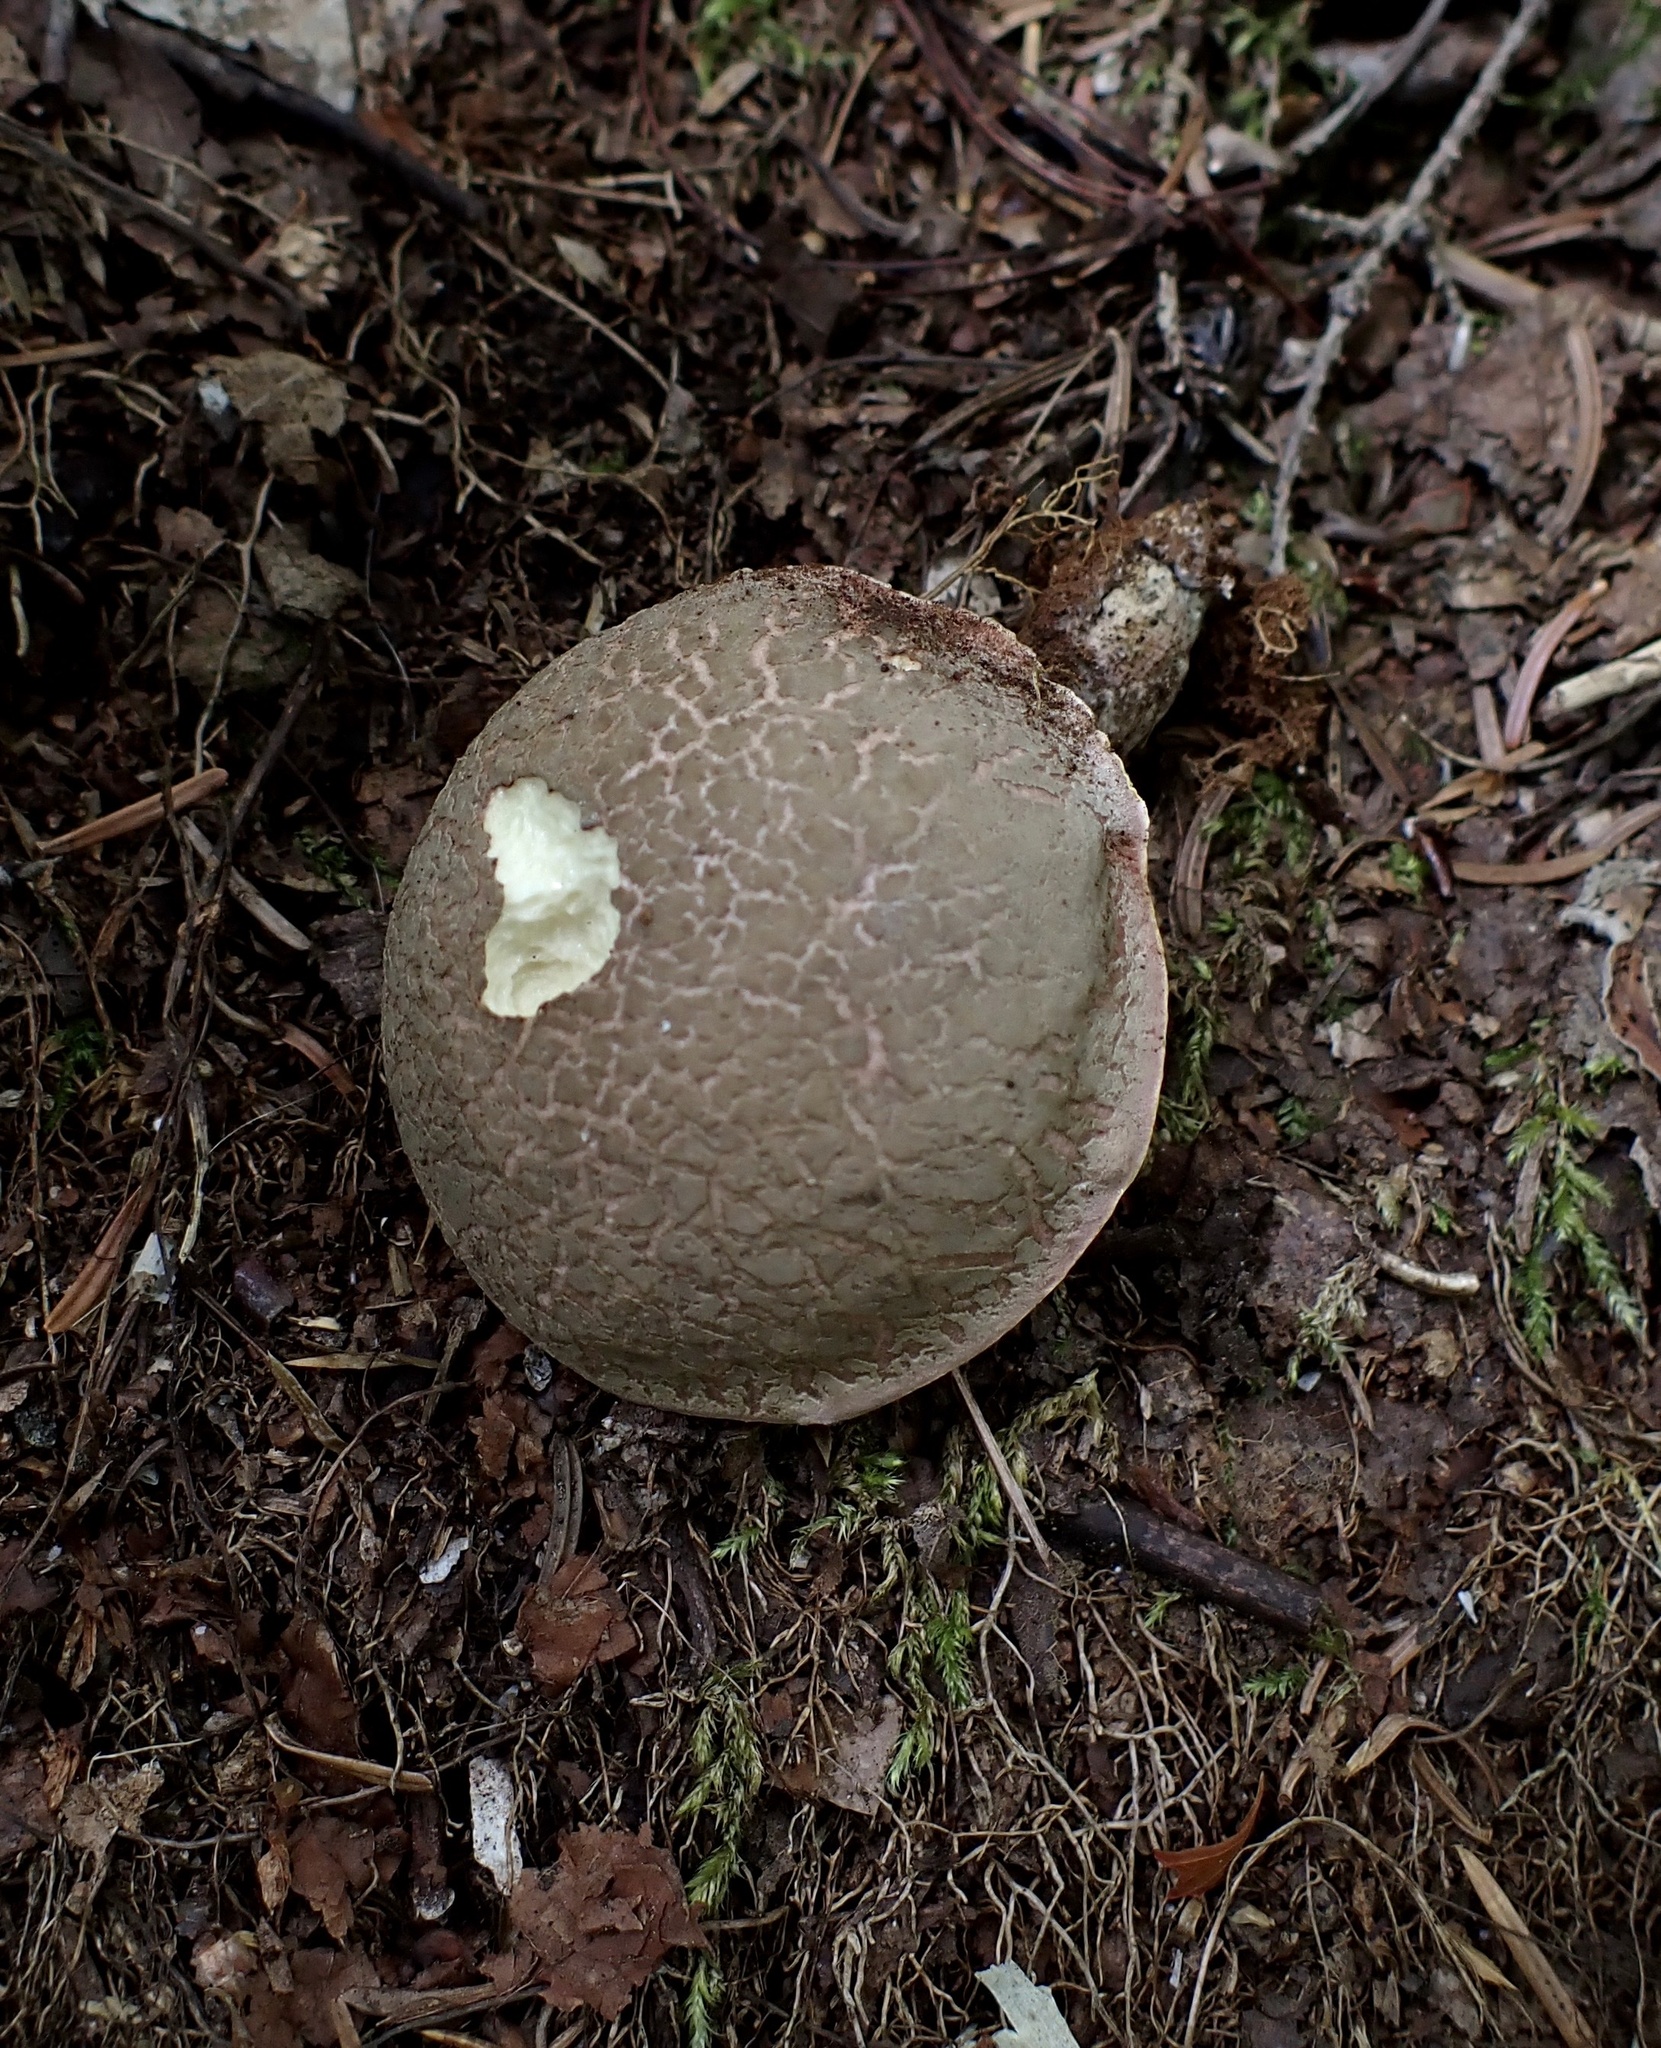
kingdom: Fungi
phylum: Basidiomycota
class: Agaricomycetes
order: Boletales
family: Boletaceae
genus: Xerocomellus
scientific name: Xerocomellus intermedius
